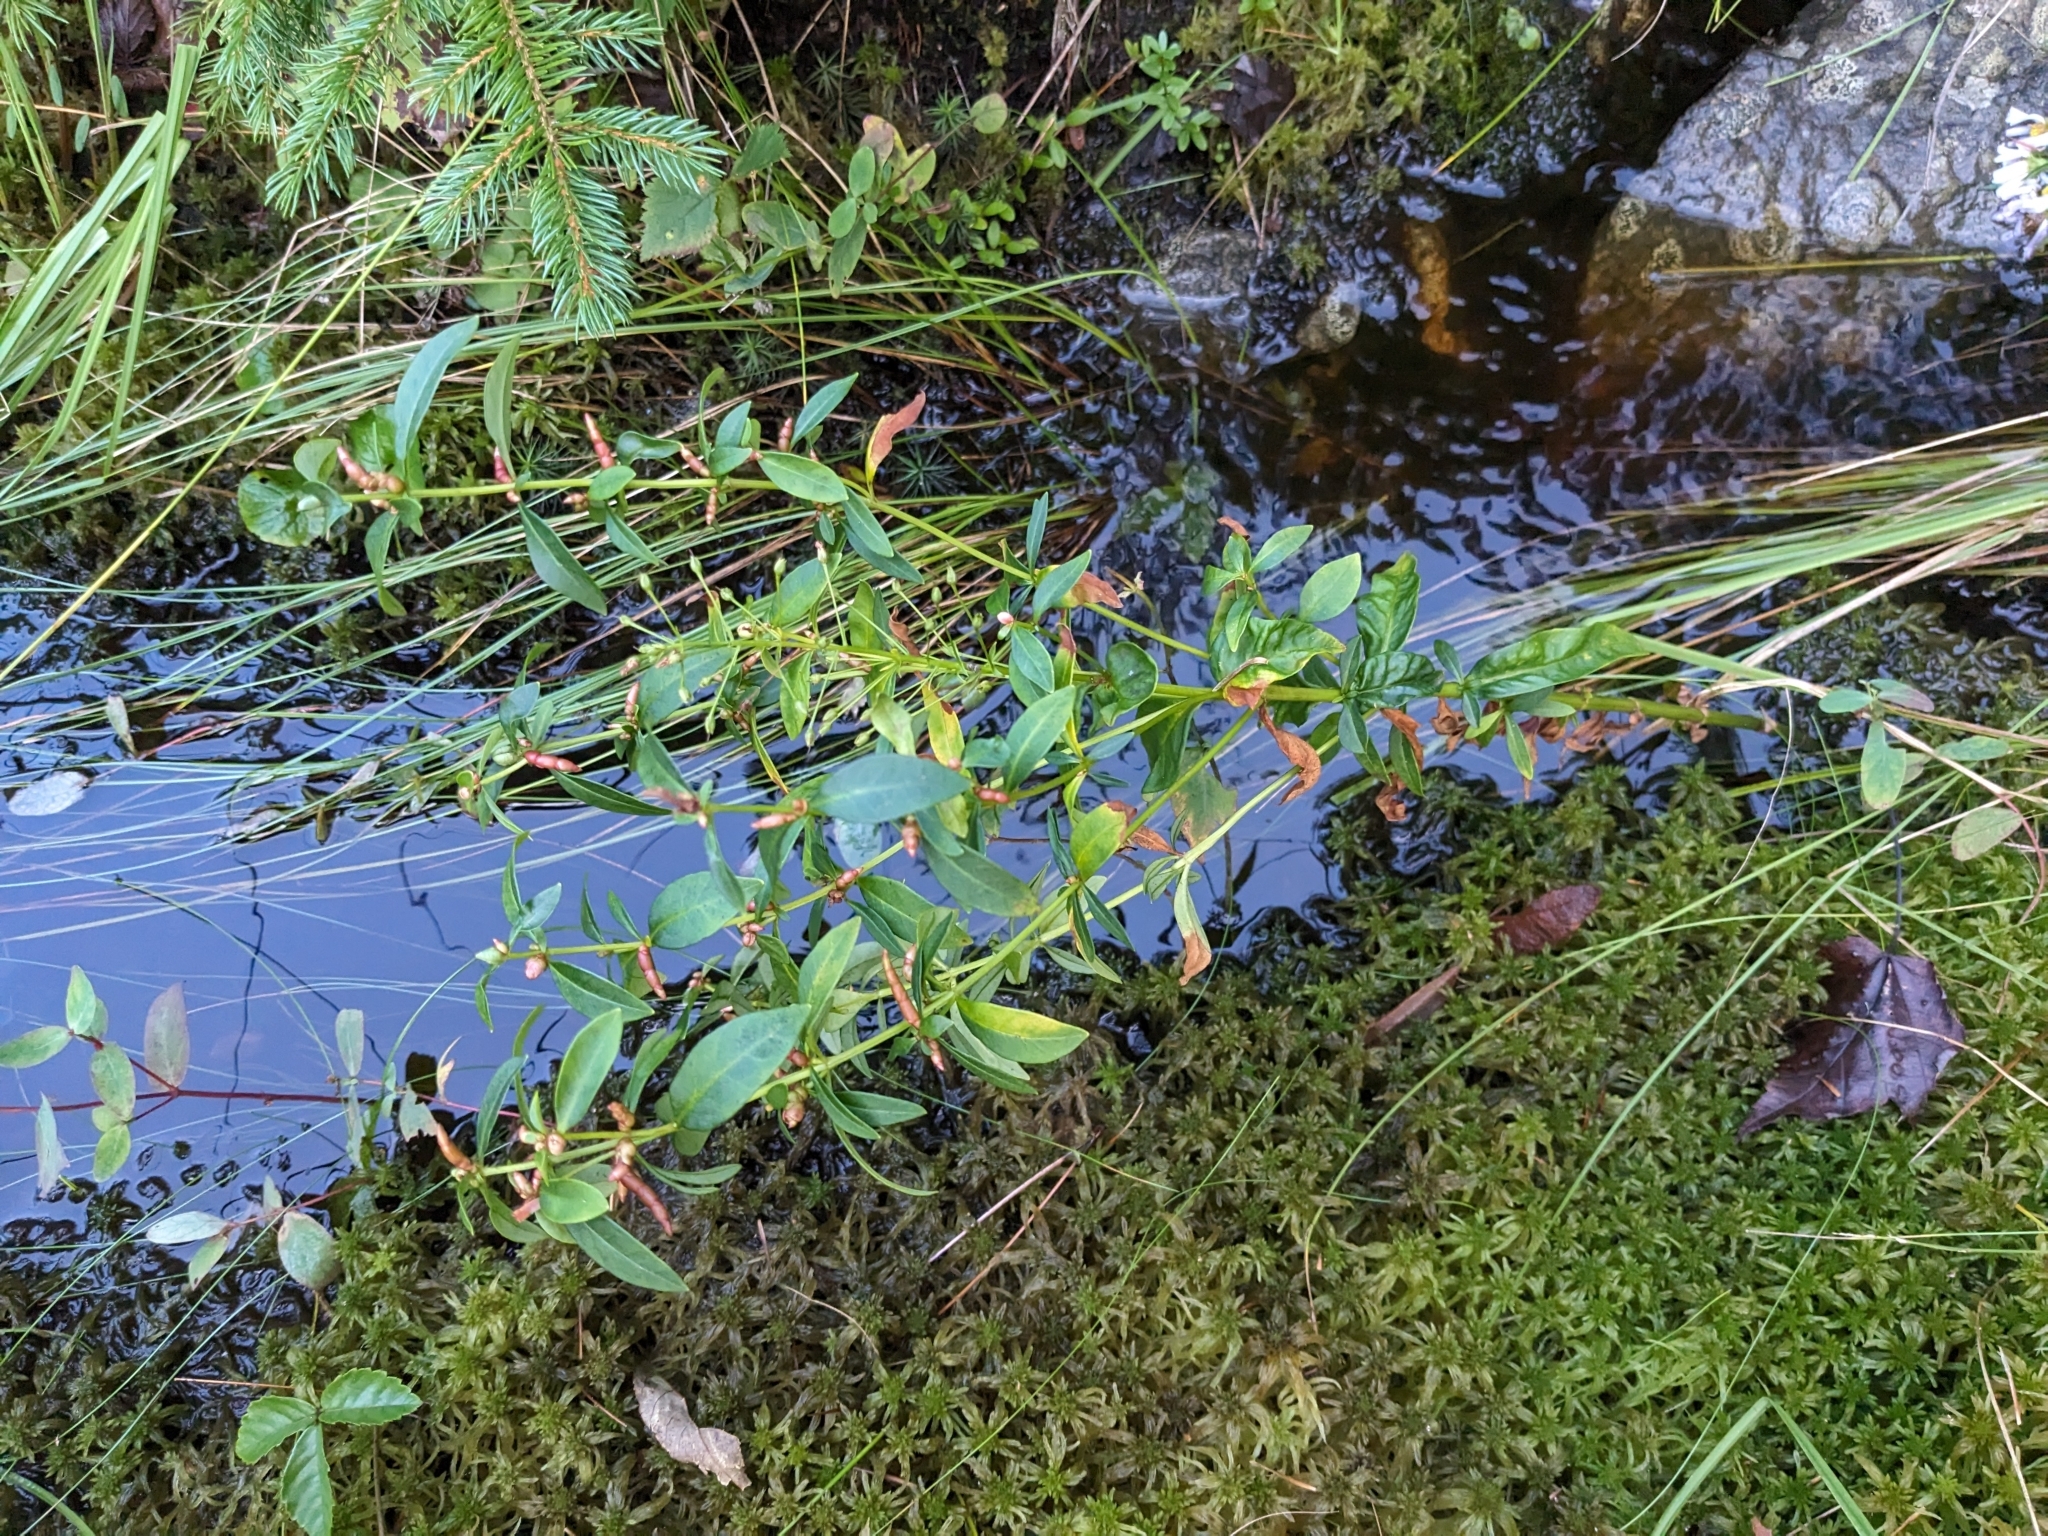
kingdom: Plantae
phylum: Tracheophyta
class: Magnoliopsida
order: Ericales
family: Primulaceae
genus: Lysimachia
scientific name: Lysimachia terrestris
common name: Lake loosestrife
